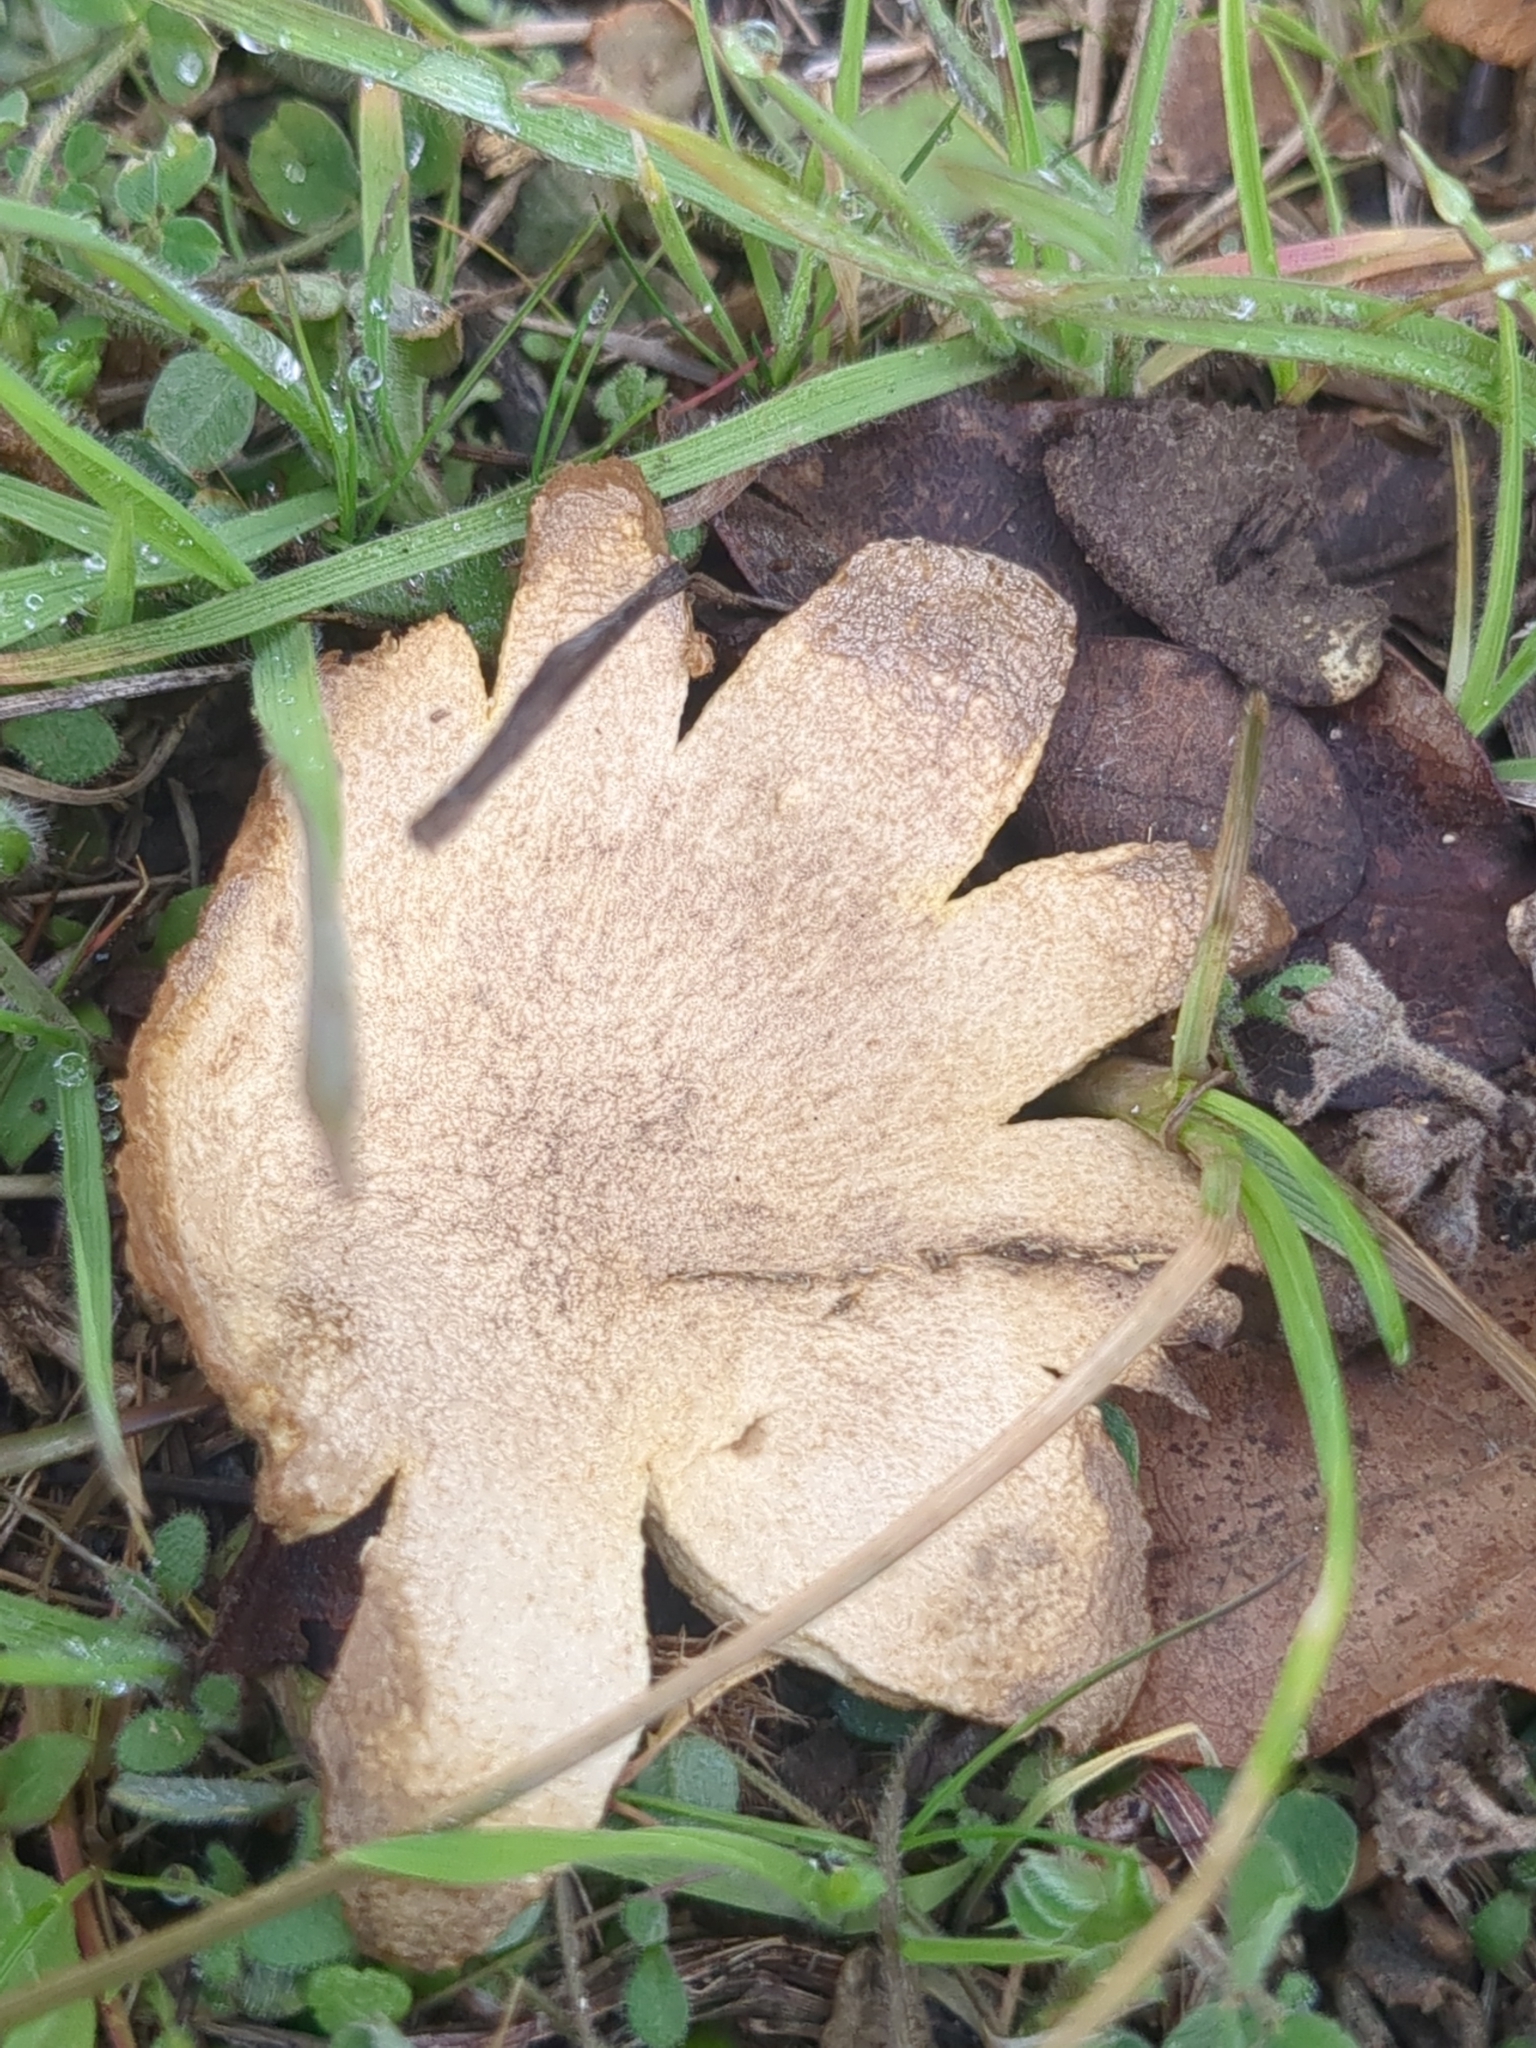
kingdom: Fungi
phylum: Basidiomycota
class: Agaricomycetes
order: Boletales
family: Sclerodermataceae
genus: Scleroderma
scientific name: Scleroderma polyrhizum
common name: Many-rooted earthball
